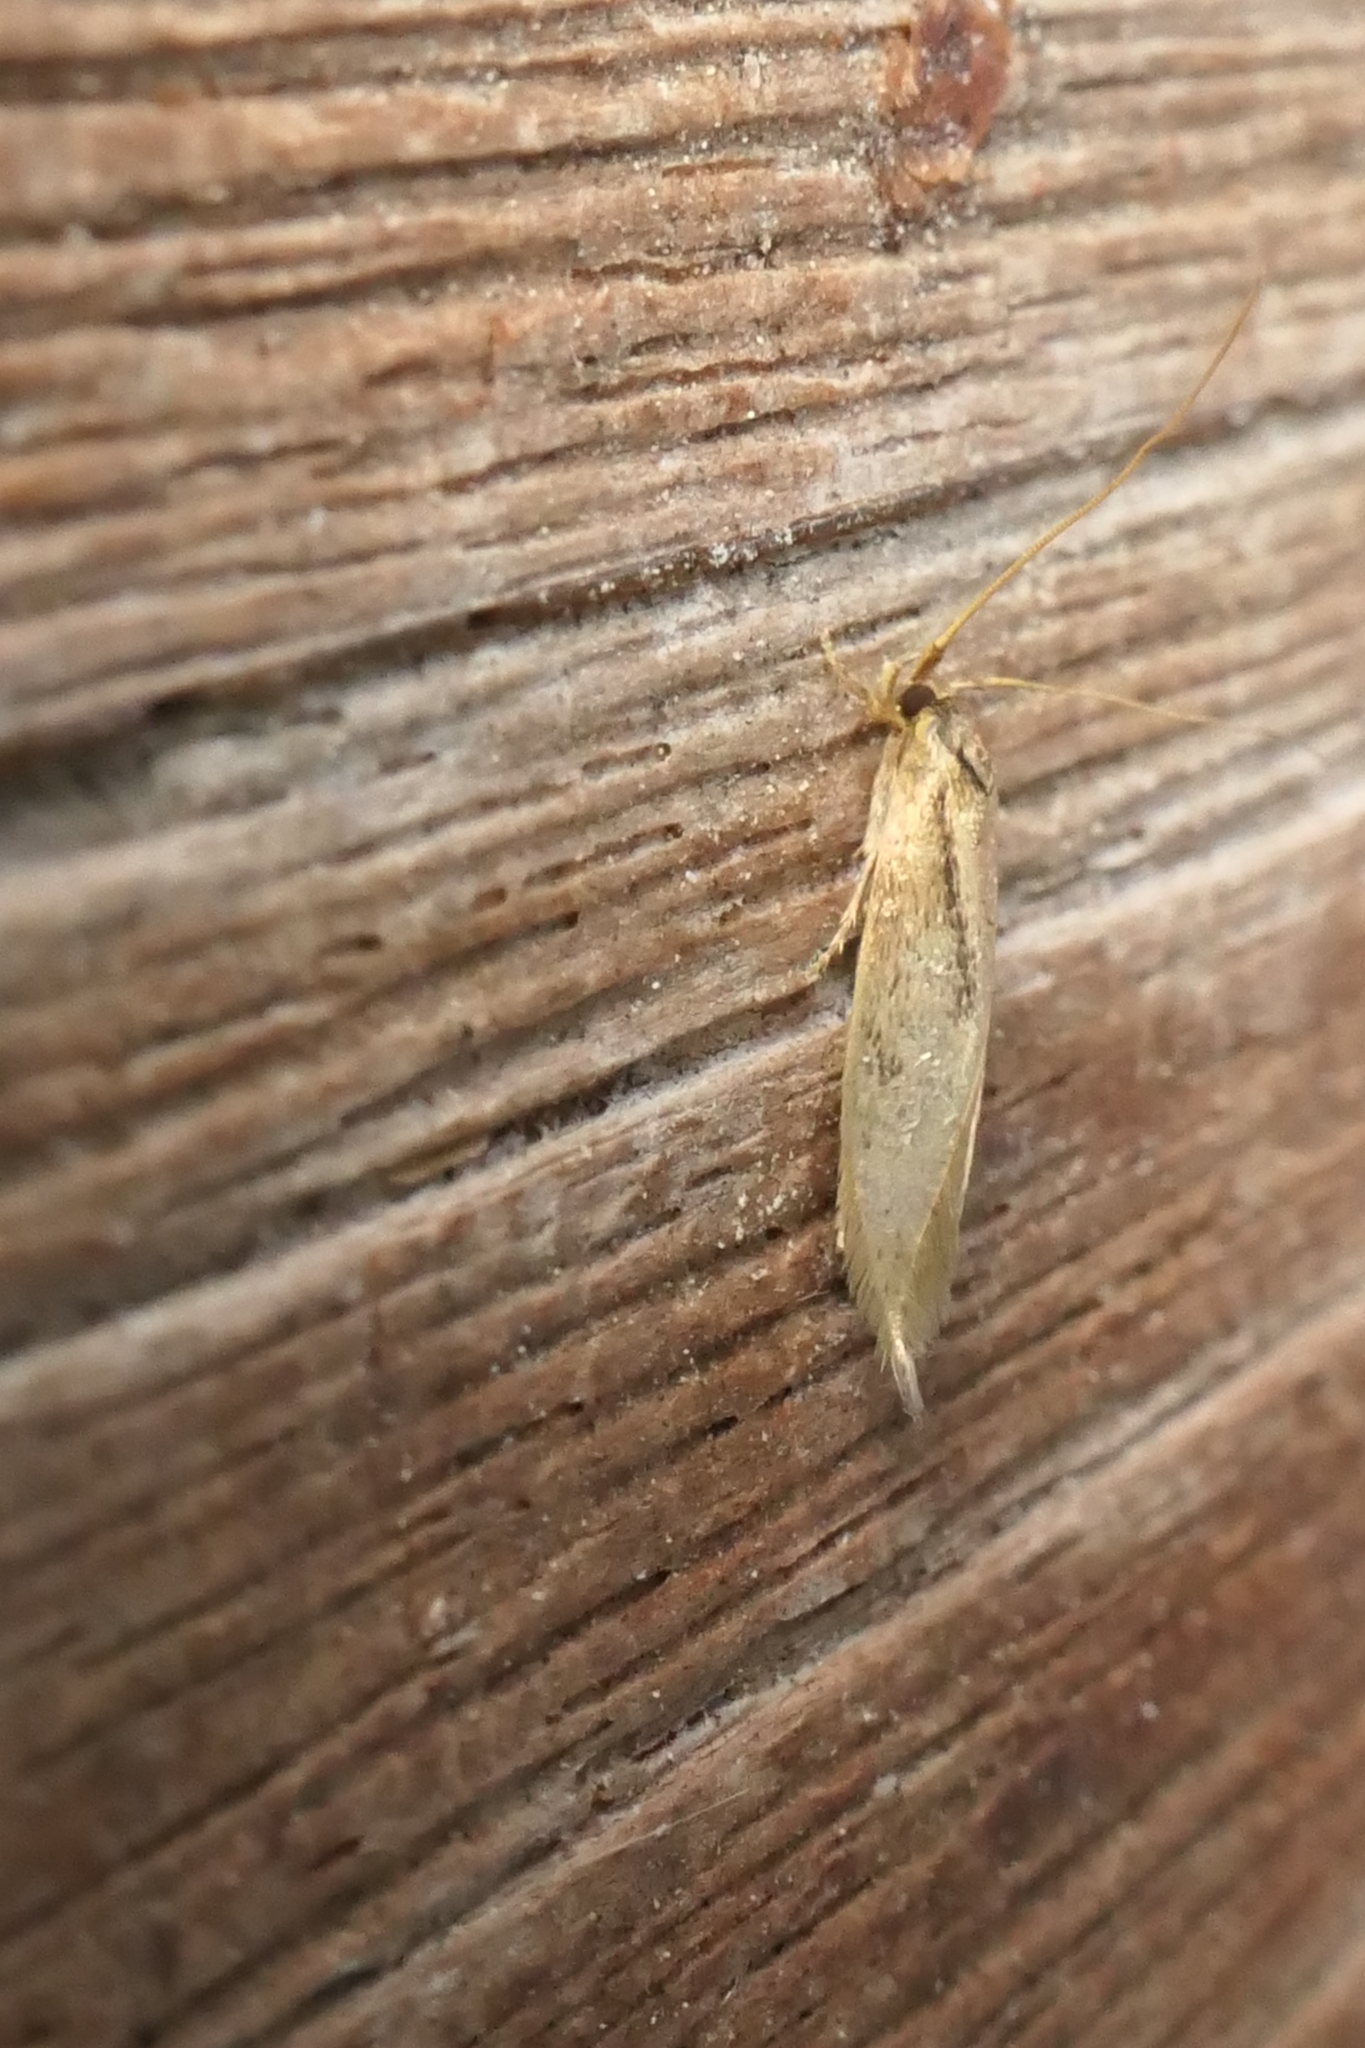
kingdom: Animalia
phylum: Arthropoda
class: Insecta
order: Lepidoptera
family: Tineidae
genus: Opogona
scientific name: Opogona omoscopa
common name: Moth
